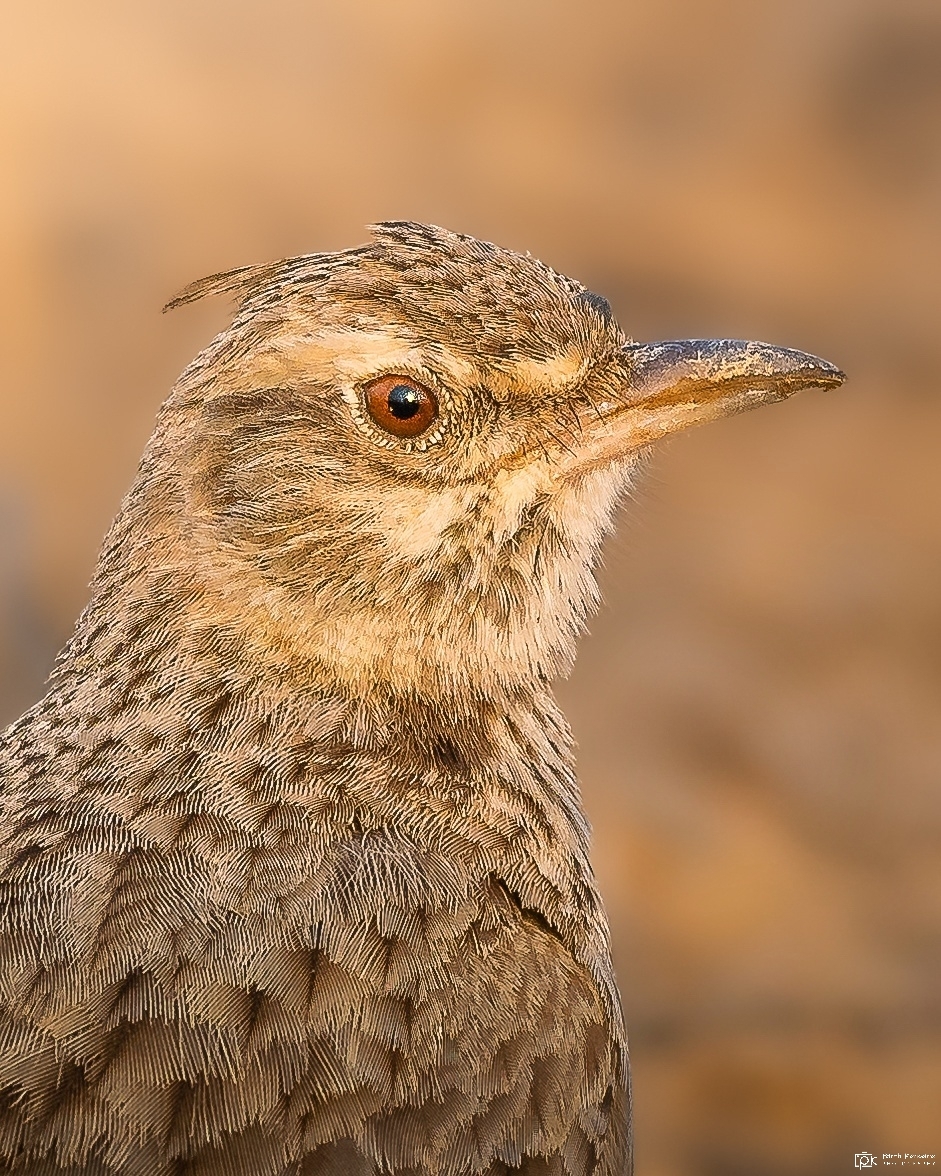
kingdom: Animalia
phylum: Chordata
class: Aves
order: Passeriformes
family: Alaudidae
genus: Galerida
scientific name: Galerida cristata
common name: Crested lark
